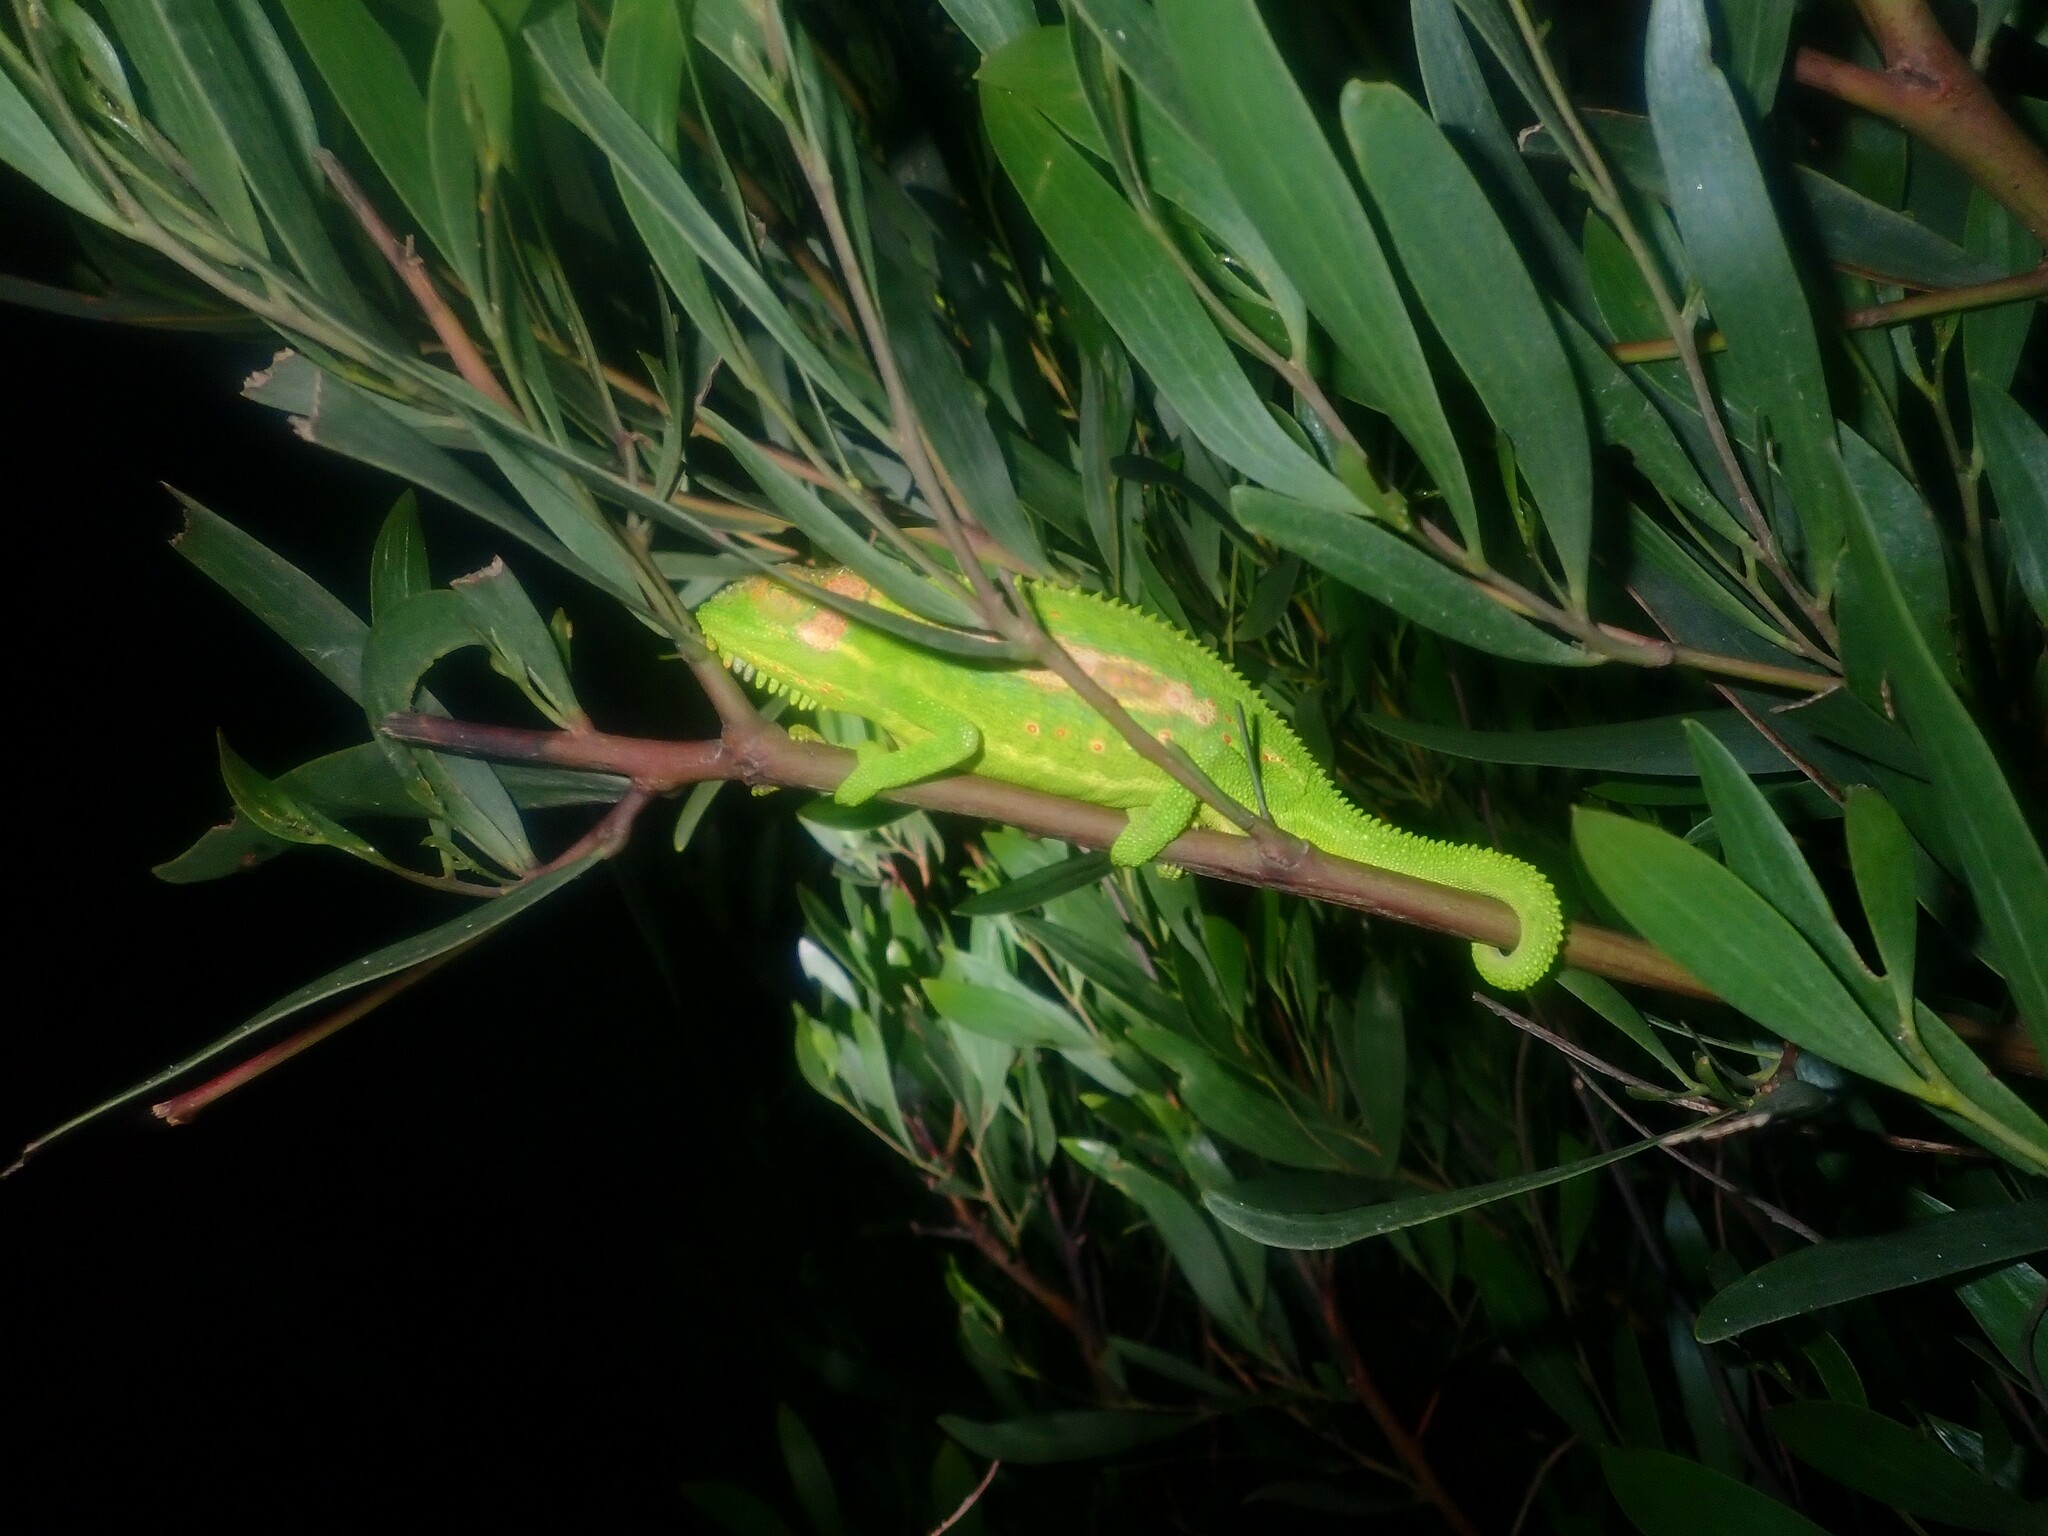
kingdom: Animalia
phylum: Chordata
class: Squamata
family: Chamaeleonidae
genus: Bradypodion
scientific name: Bradypodion pumilum
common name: Cape dwarf chameleon
